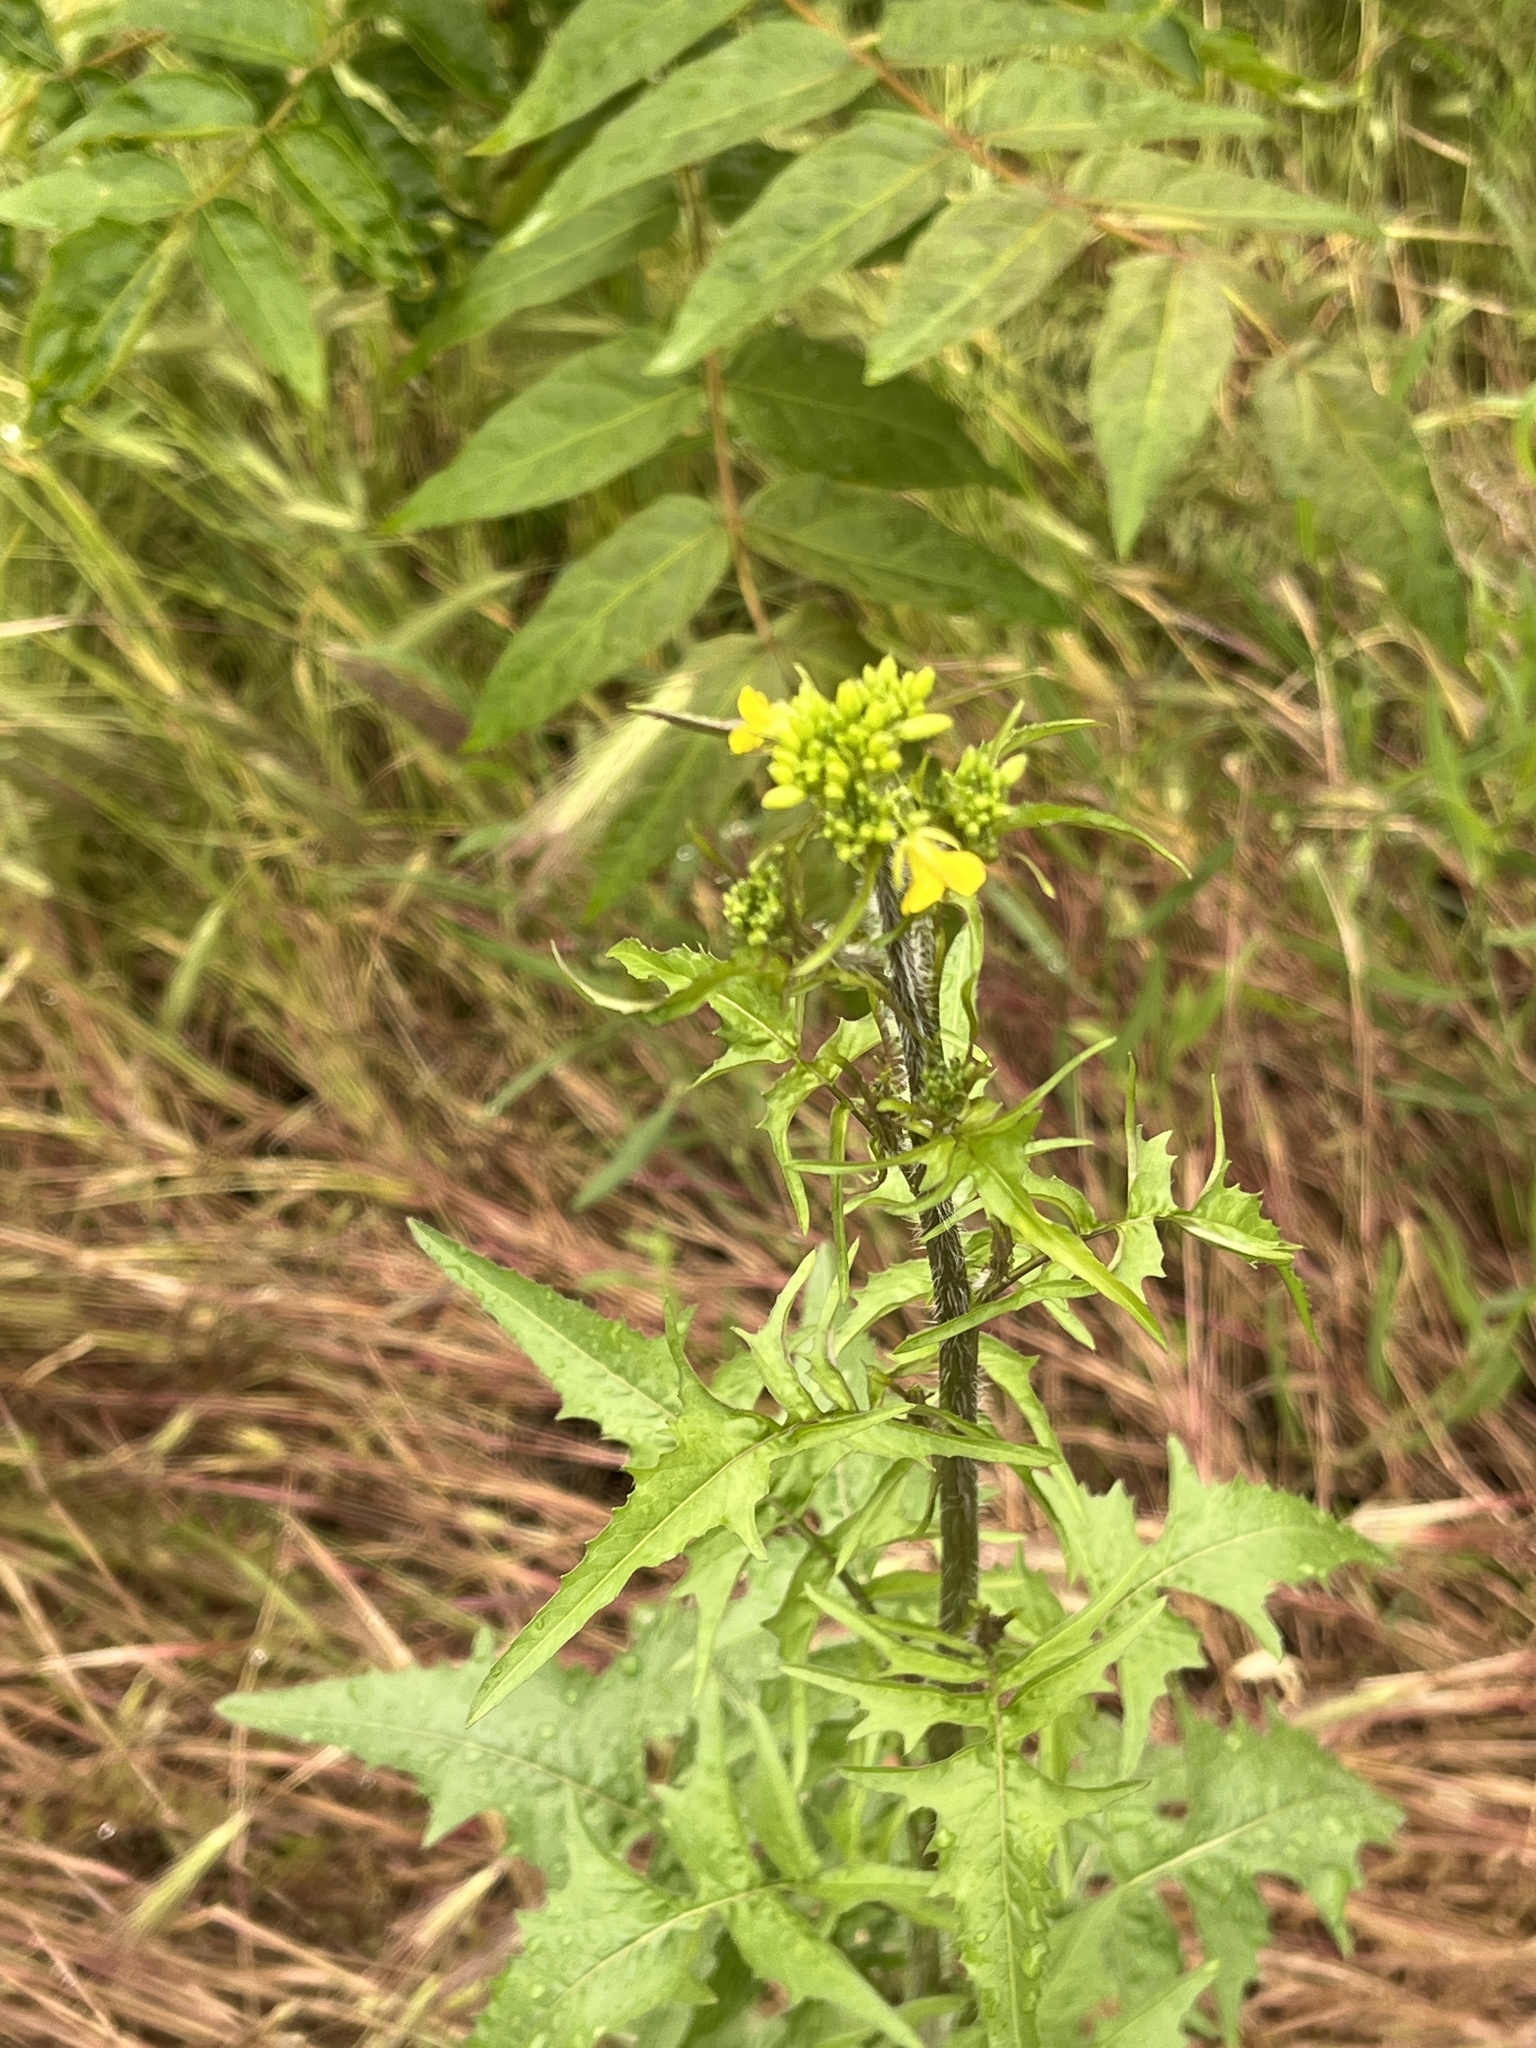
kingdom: Plantae
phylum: Tracheophyta
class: Magnoliopsida
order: Brassicales
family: Brassicaceae
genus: Sisymbrium
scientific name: Sisymbrium loeselii
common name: False london-rocket
